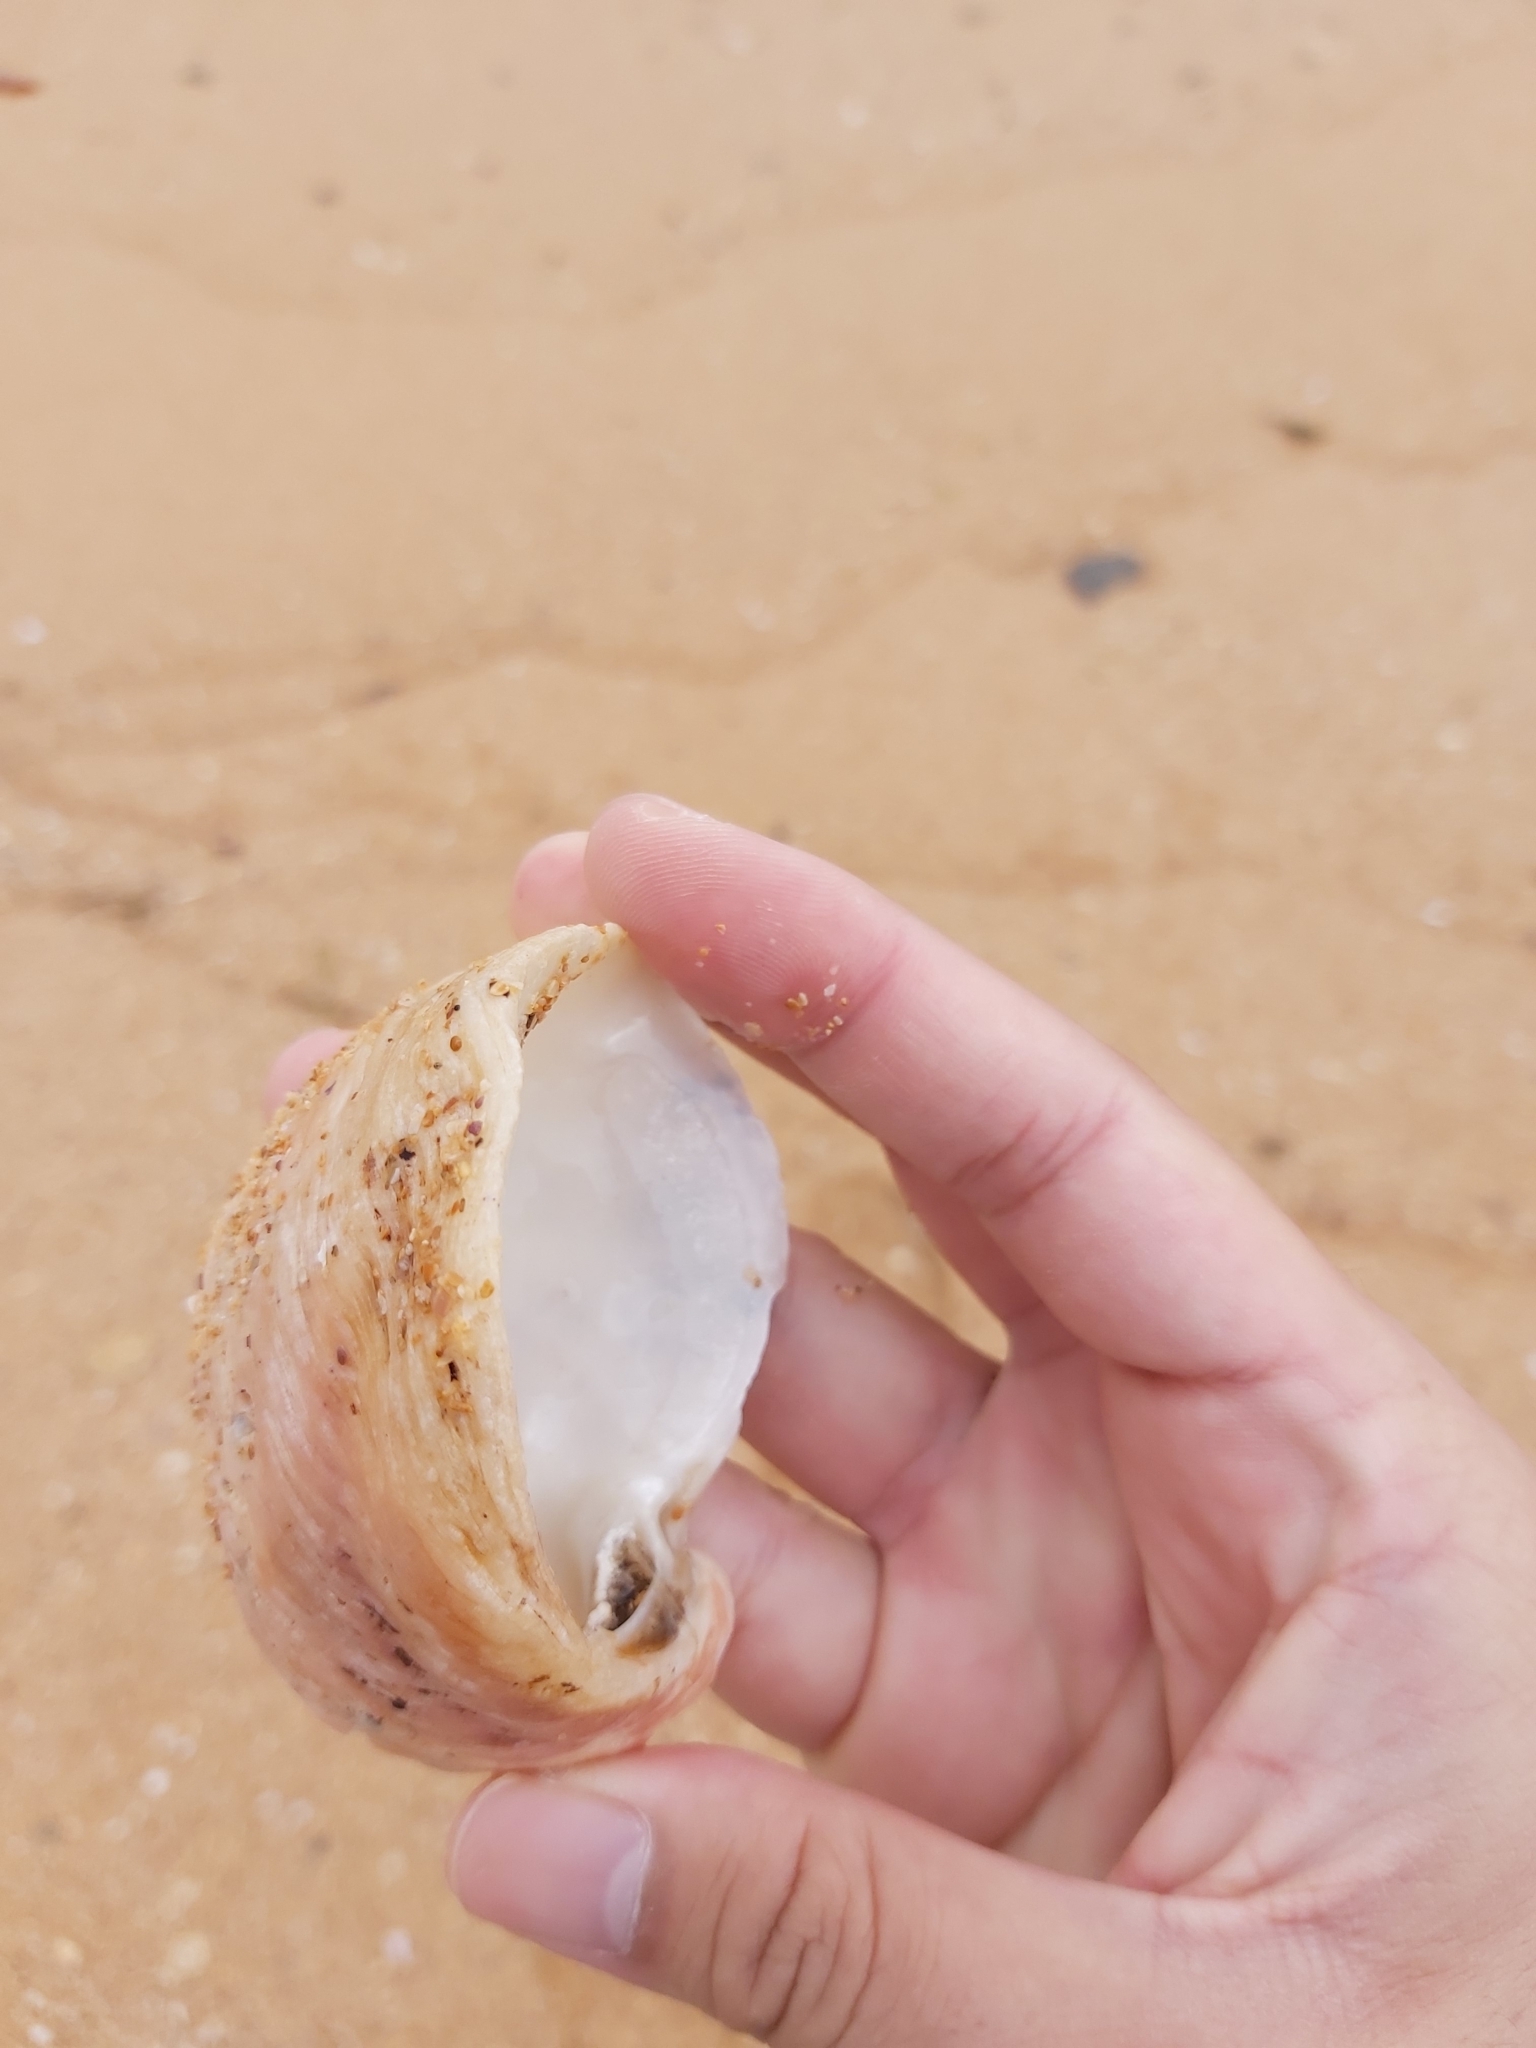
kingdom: Animalia
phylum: Mollusca
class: Bivalvia
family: Cleidothaeridae
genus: Cleidothaerus
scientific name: Cleidothaerus albidus
